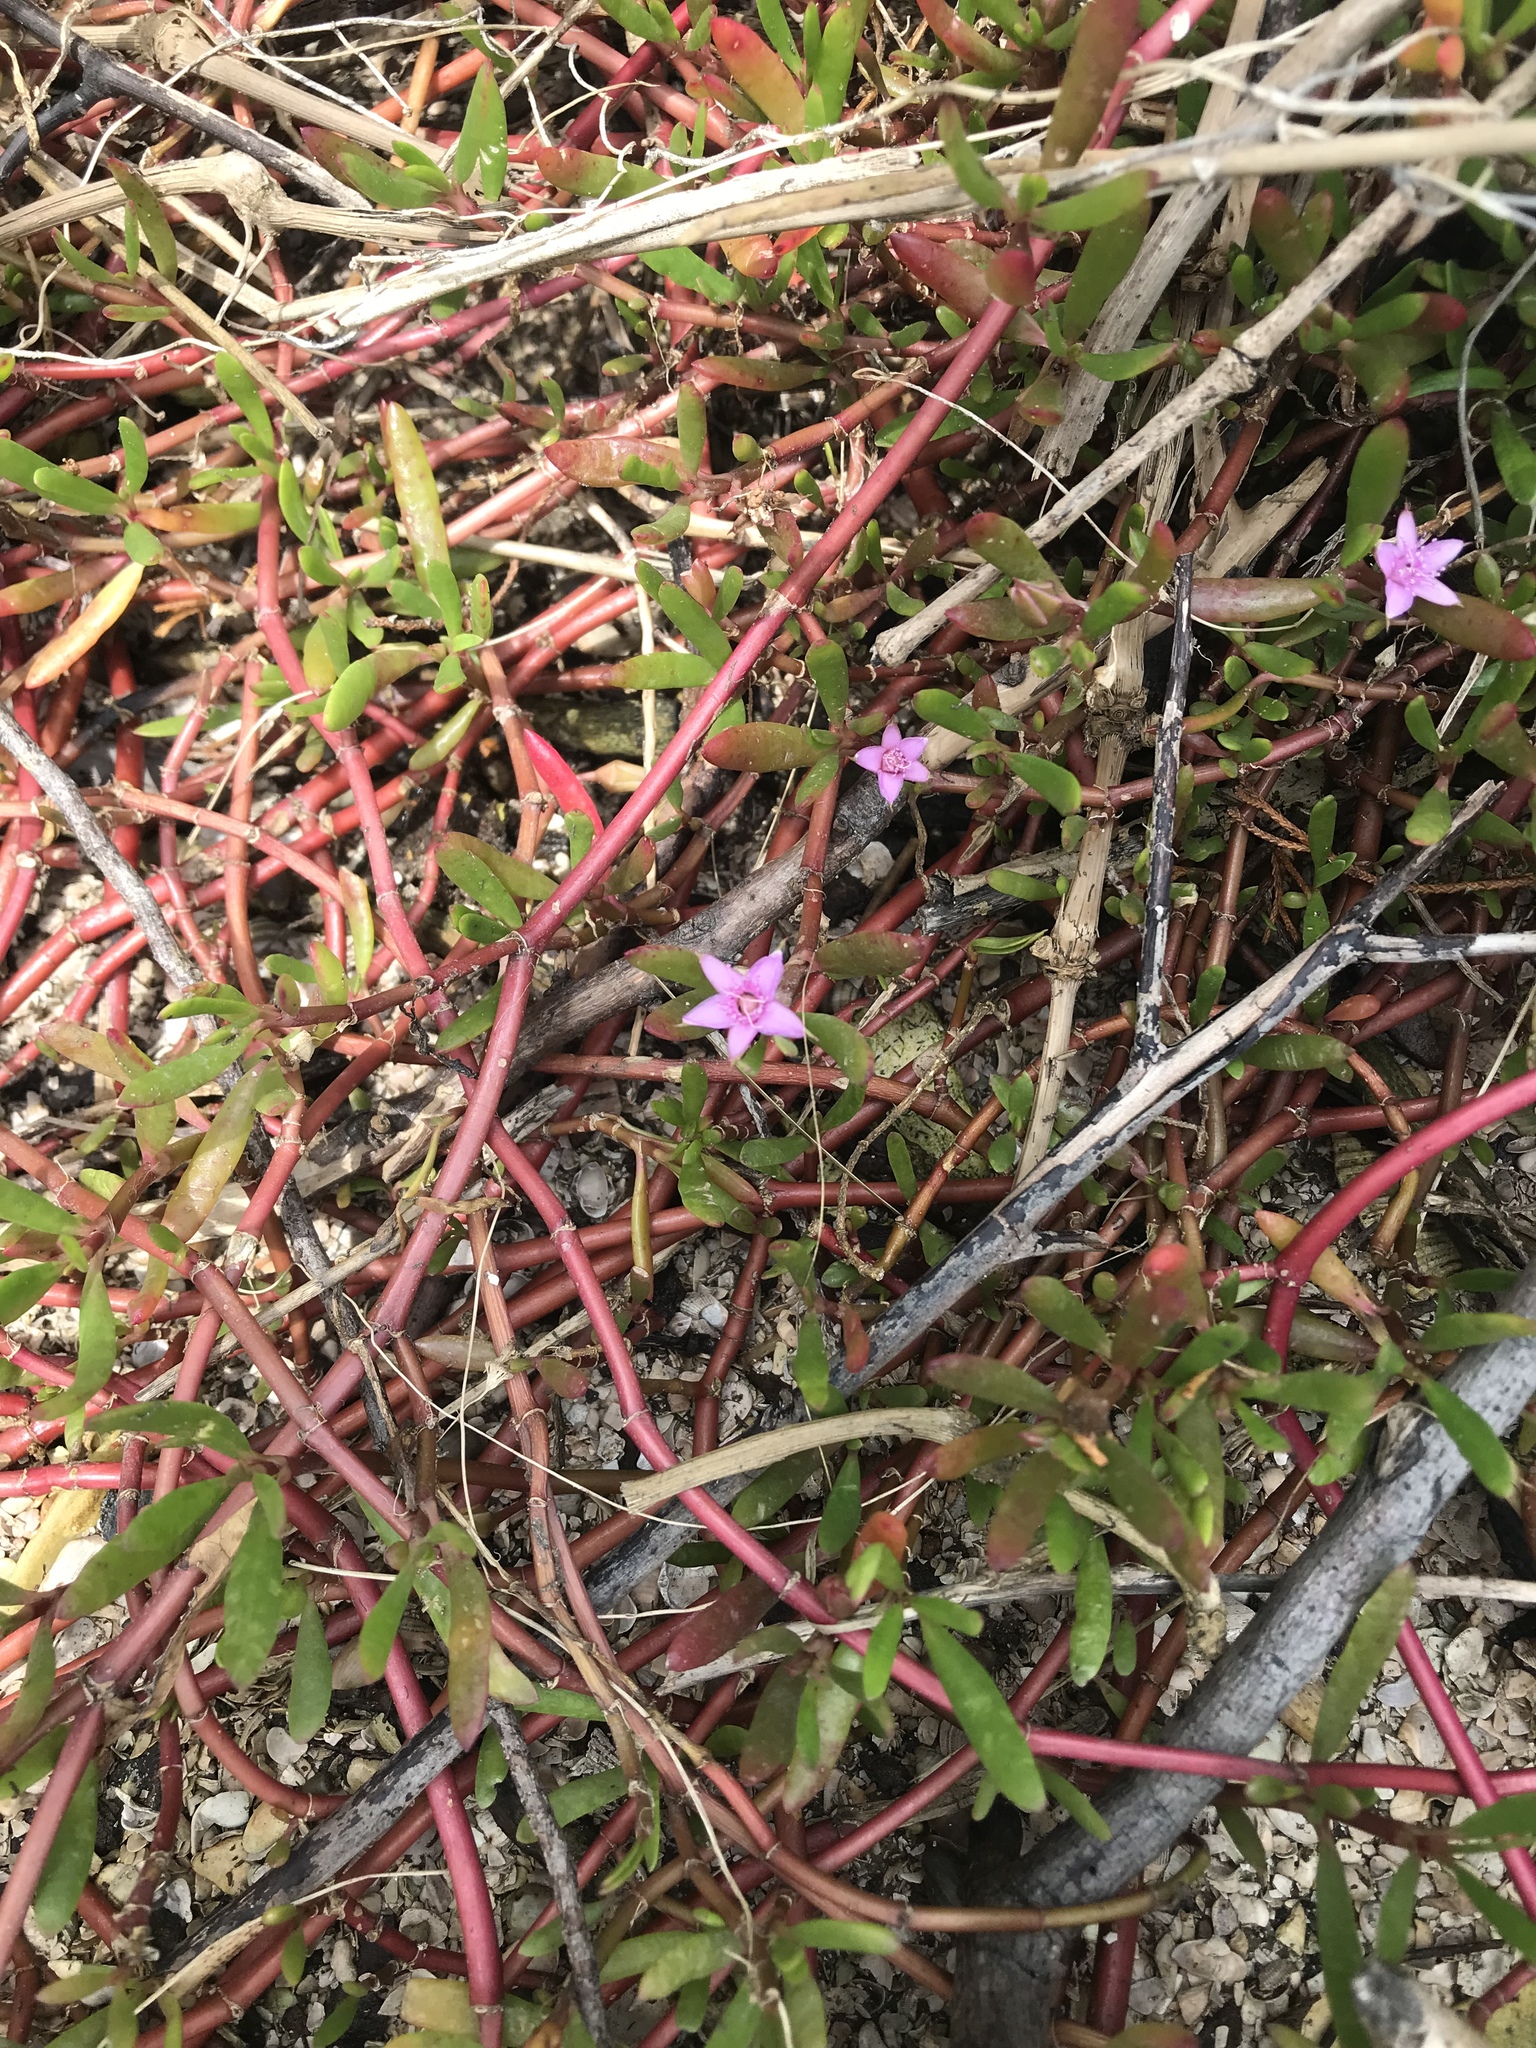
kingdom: Plantae
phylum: Tracheophyta
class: Magnoliopsida
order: Caryophyllales
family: Aizoaceae
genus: Sesuvium
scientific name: Sesuvium portulacastrum
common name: Sea-purslane
